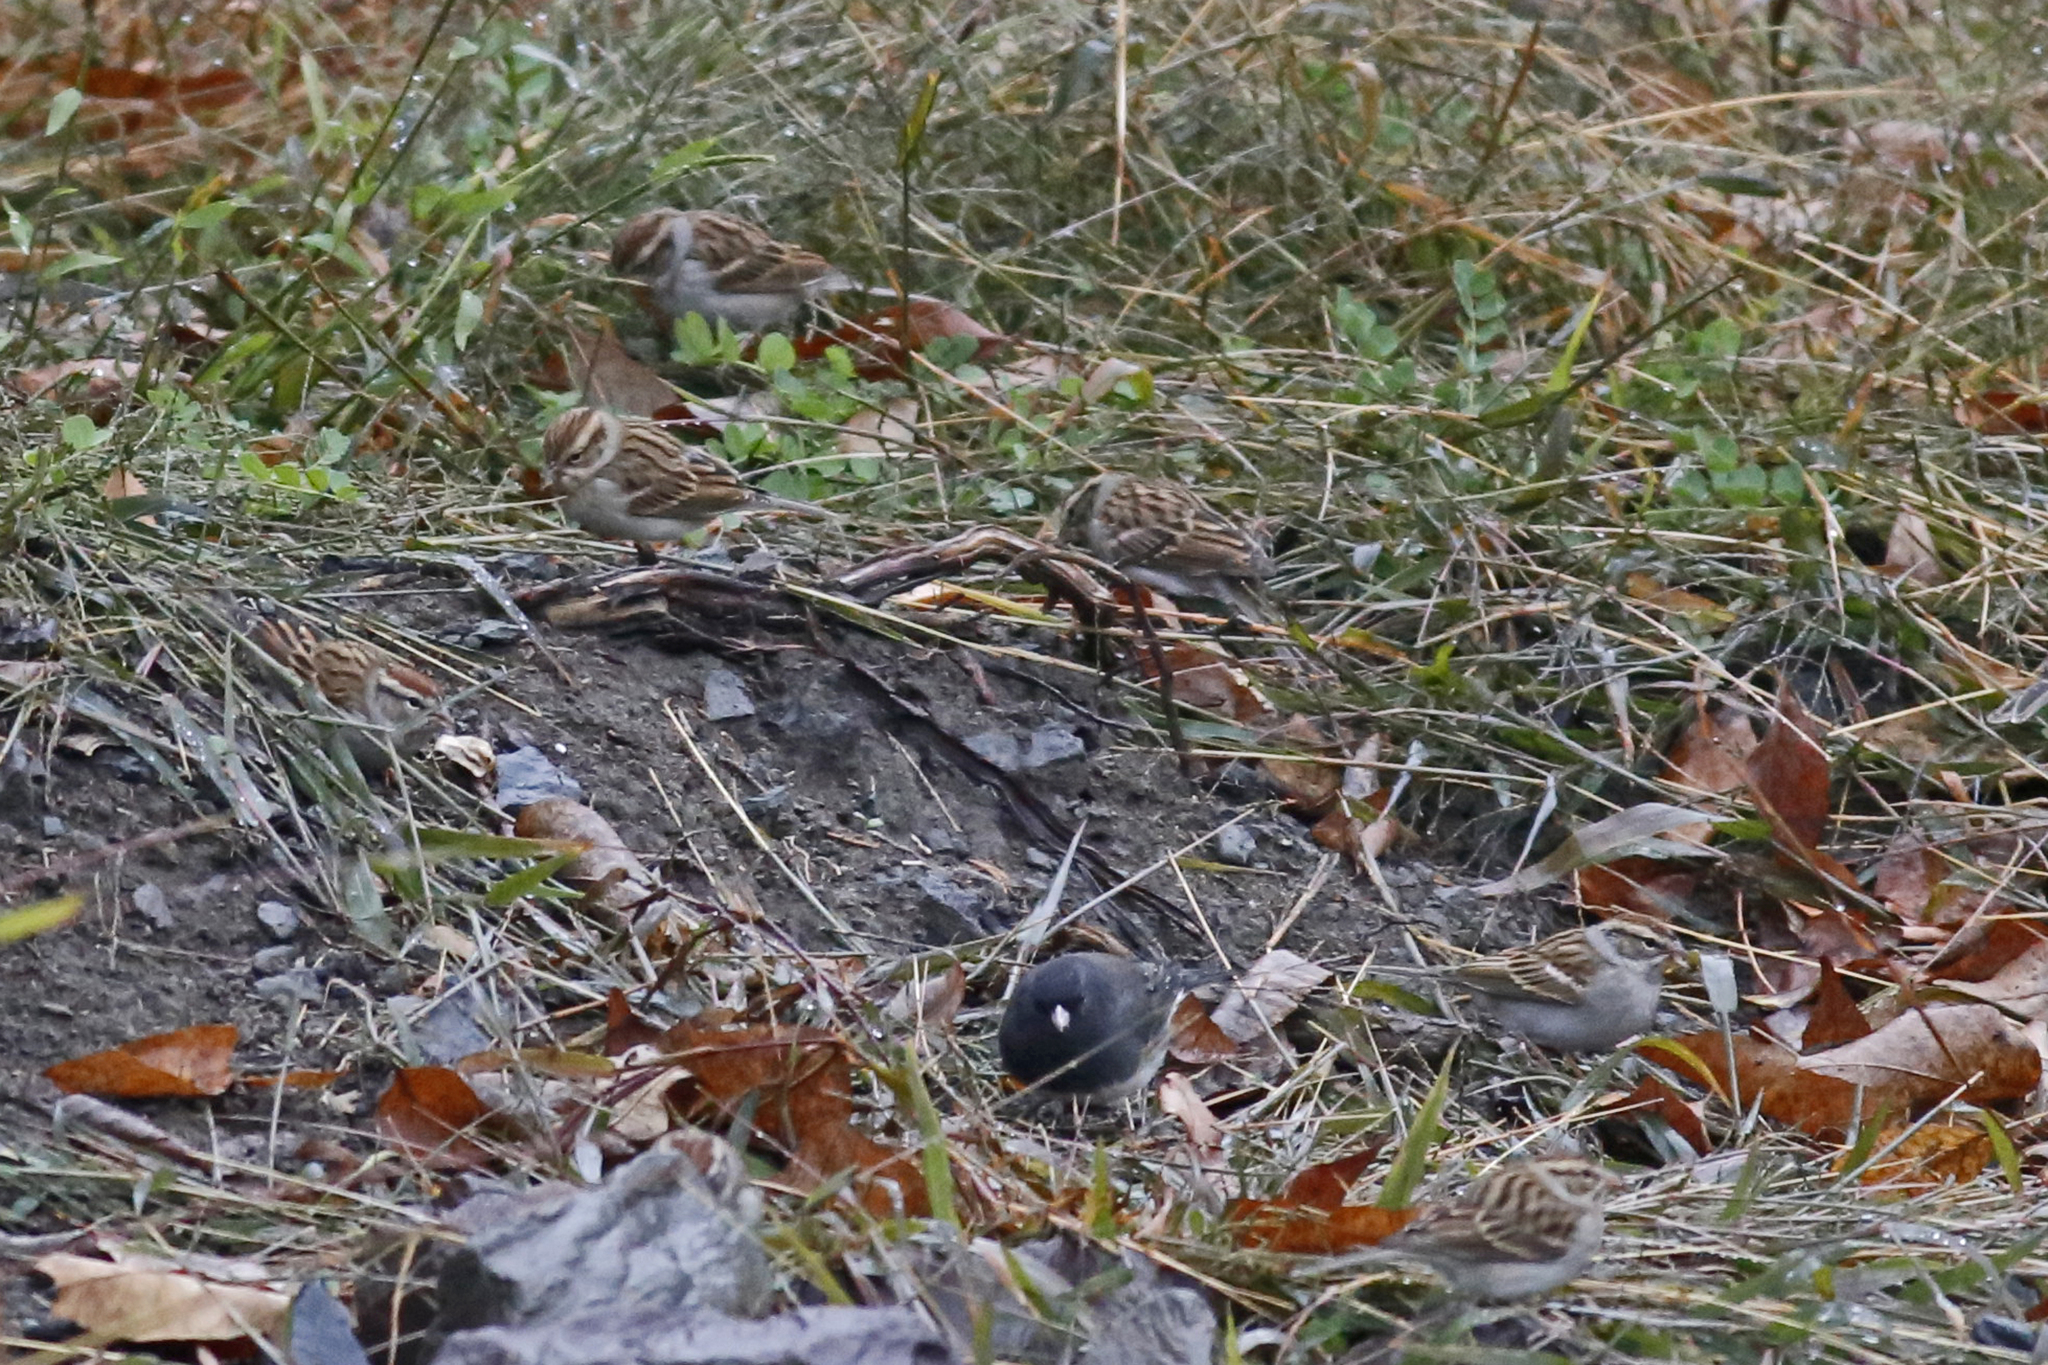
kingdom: Animalia
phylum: Chordata
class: Aves
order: Passeriformes
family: Passerellidae
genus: Spizella
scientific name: Spizella passerina
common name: Chipping sparrow
